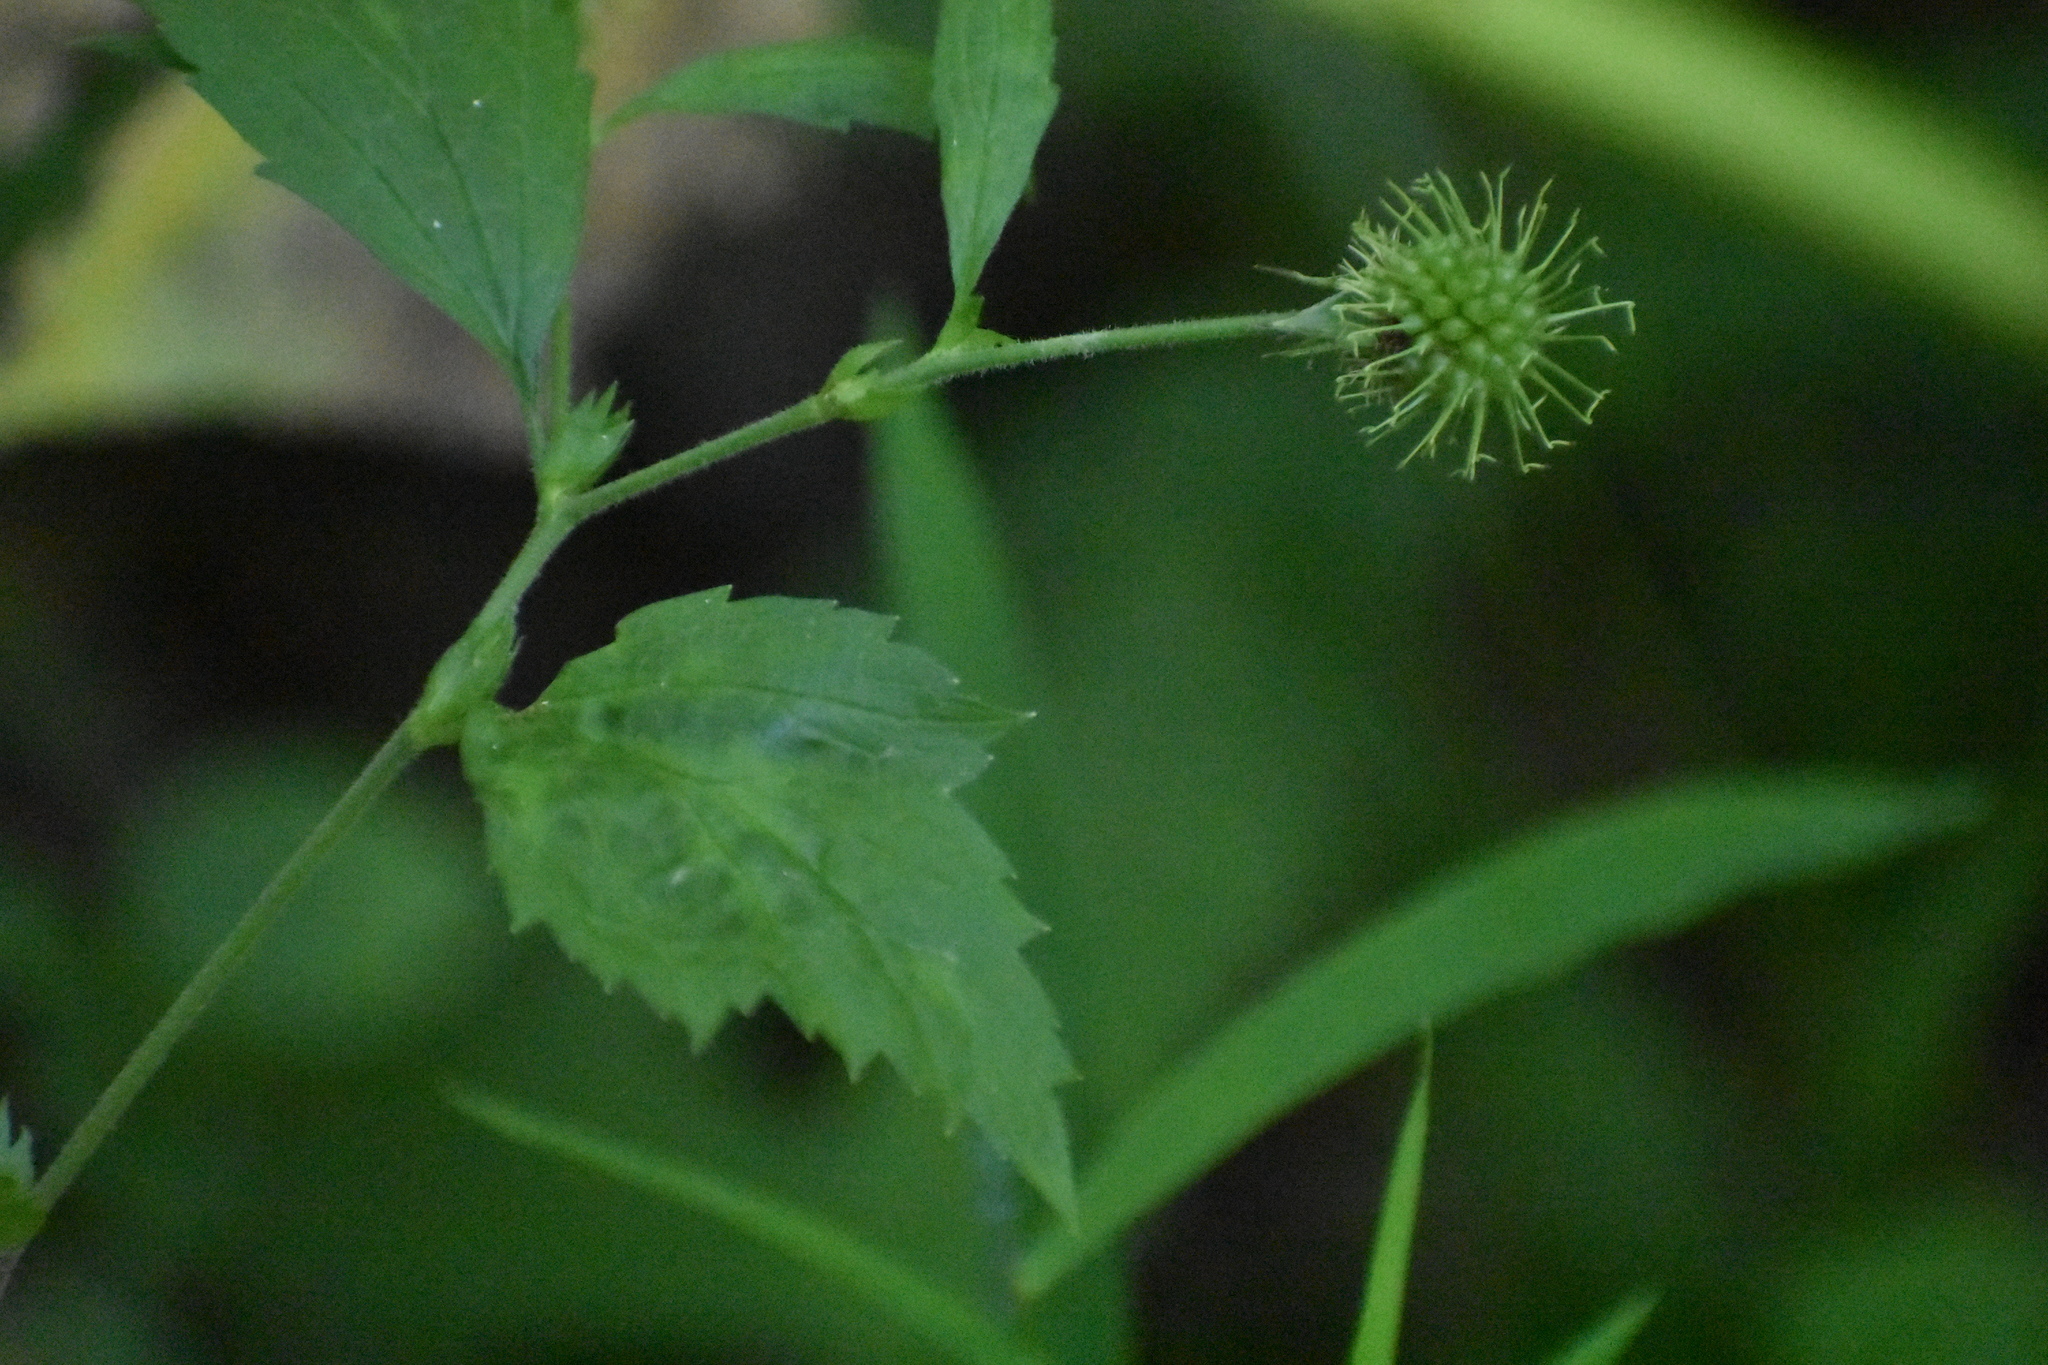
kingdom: Plantae
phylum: Tracheophyta
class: Magnoliopsida
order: Rosales
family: Rosaceae
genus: Geum
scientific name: Geum canadense
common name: White avens
